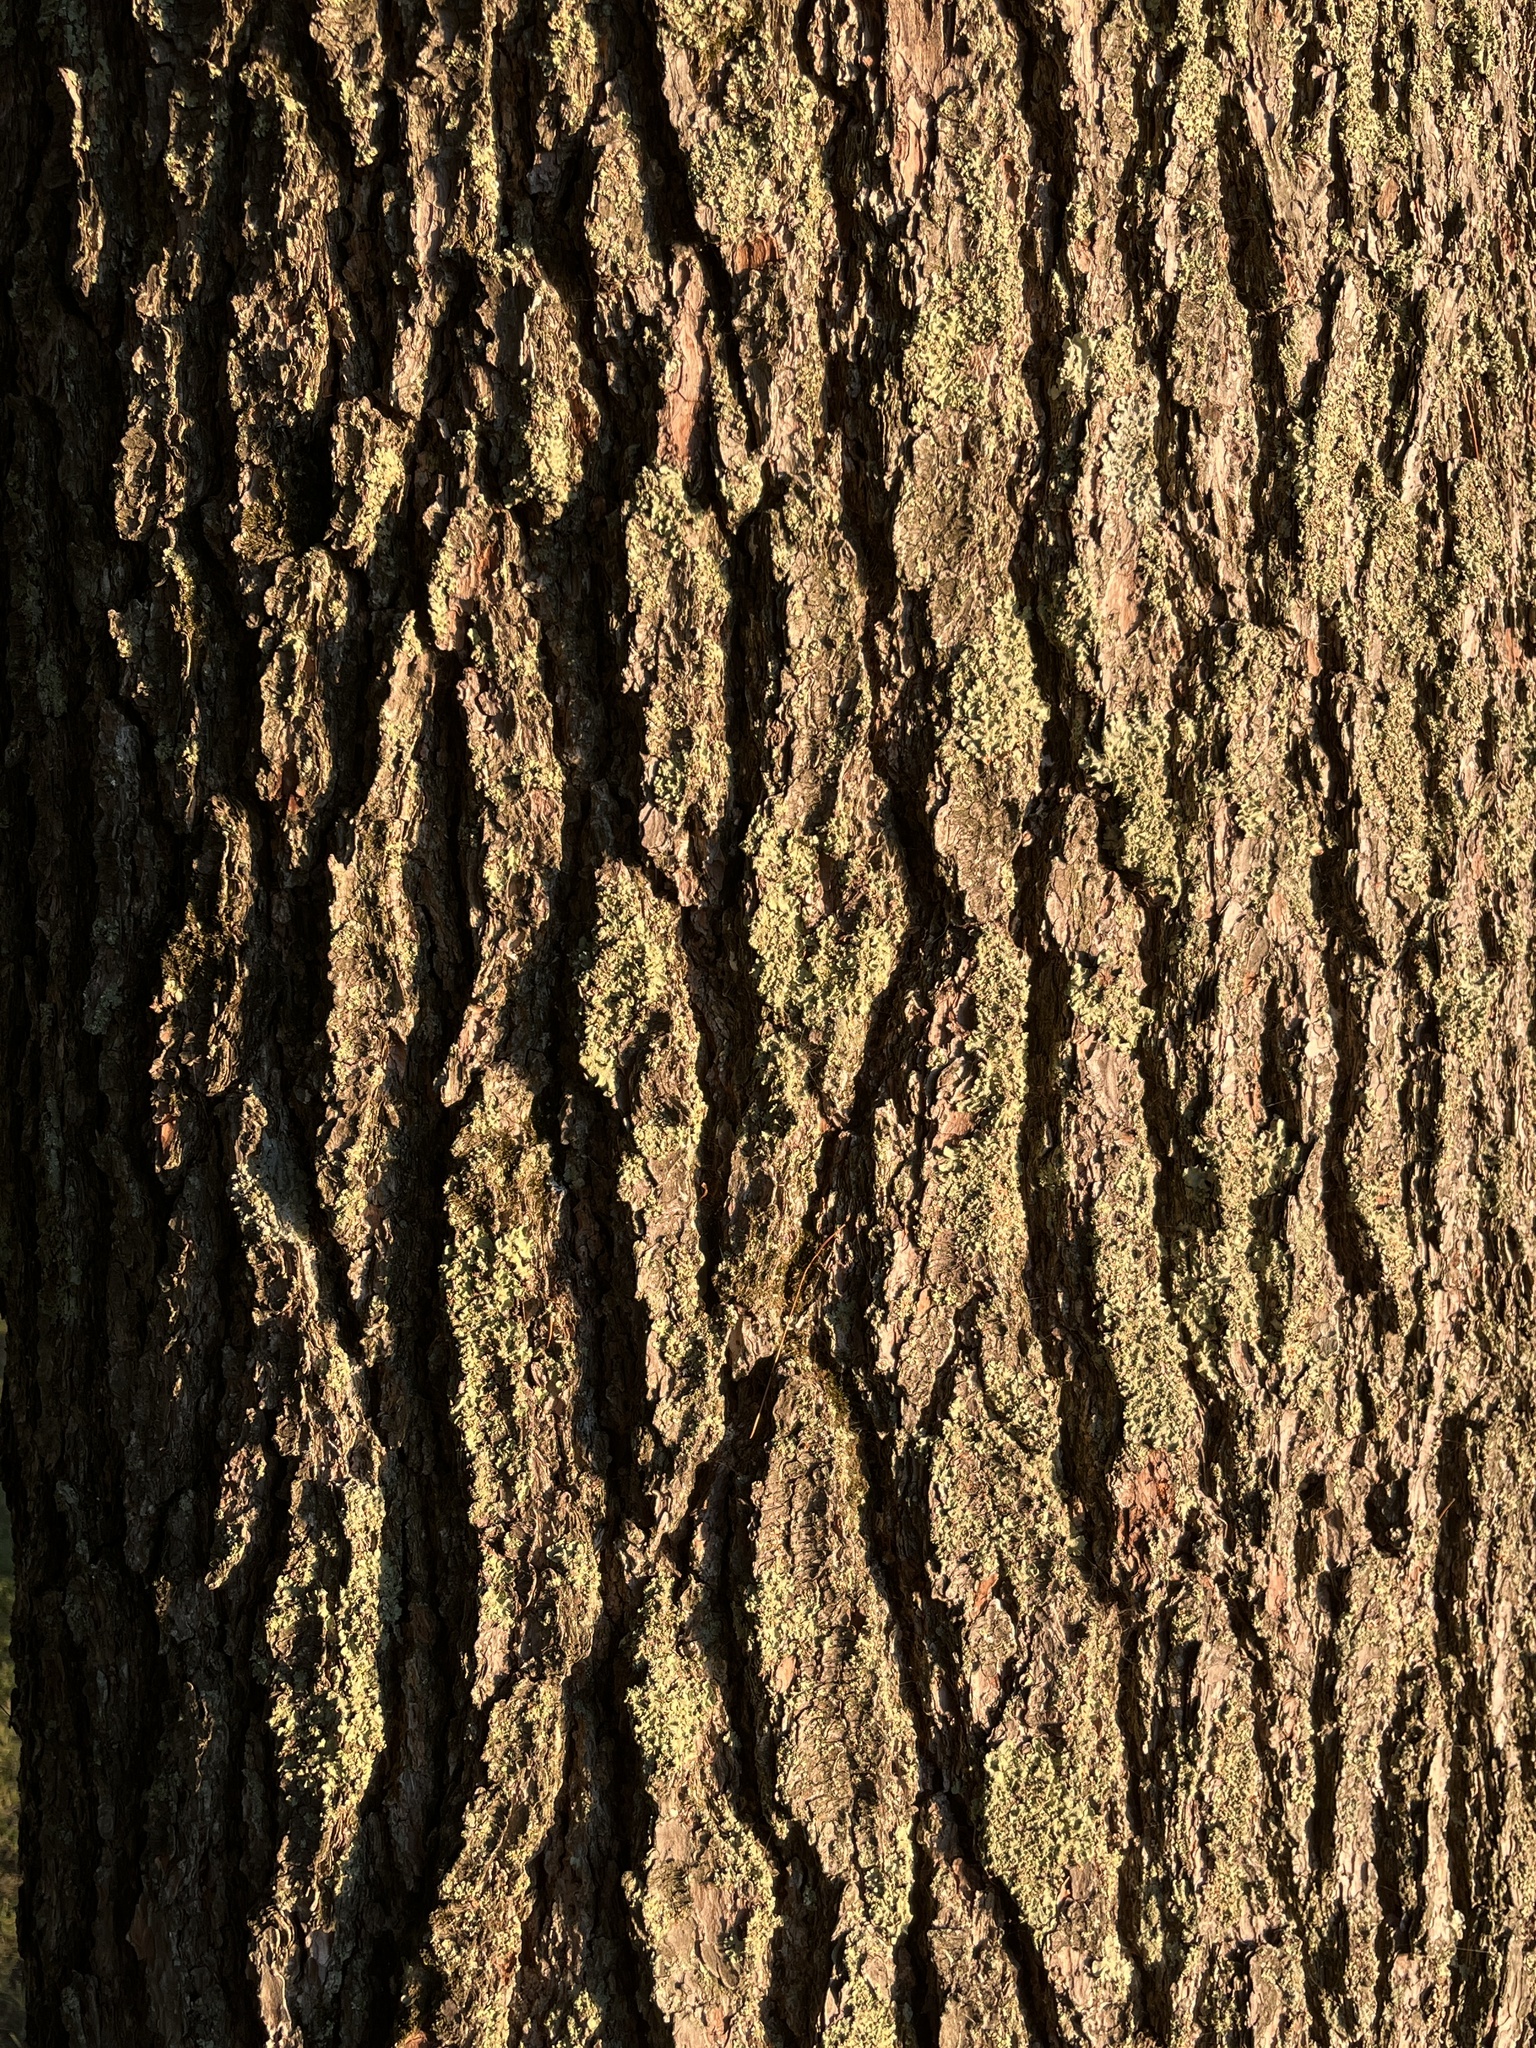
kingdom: Plantae
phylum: Tracheophyta
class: Pinopsida
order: Pinales
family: Pinaceae
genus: Pinus
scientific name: Pinus strobus
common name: Weymouth pine
